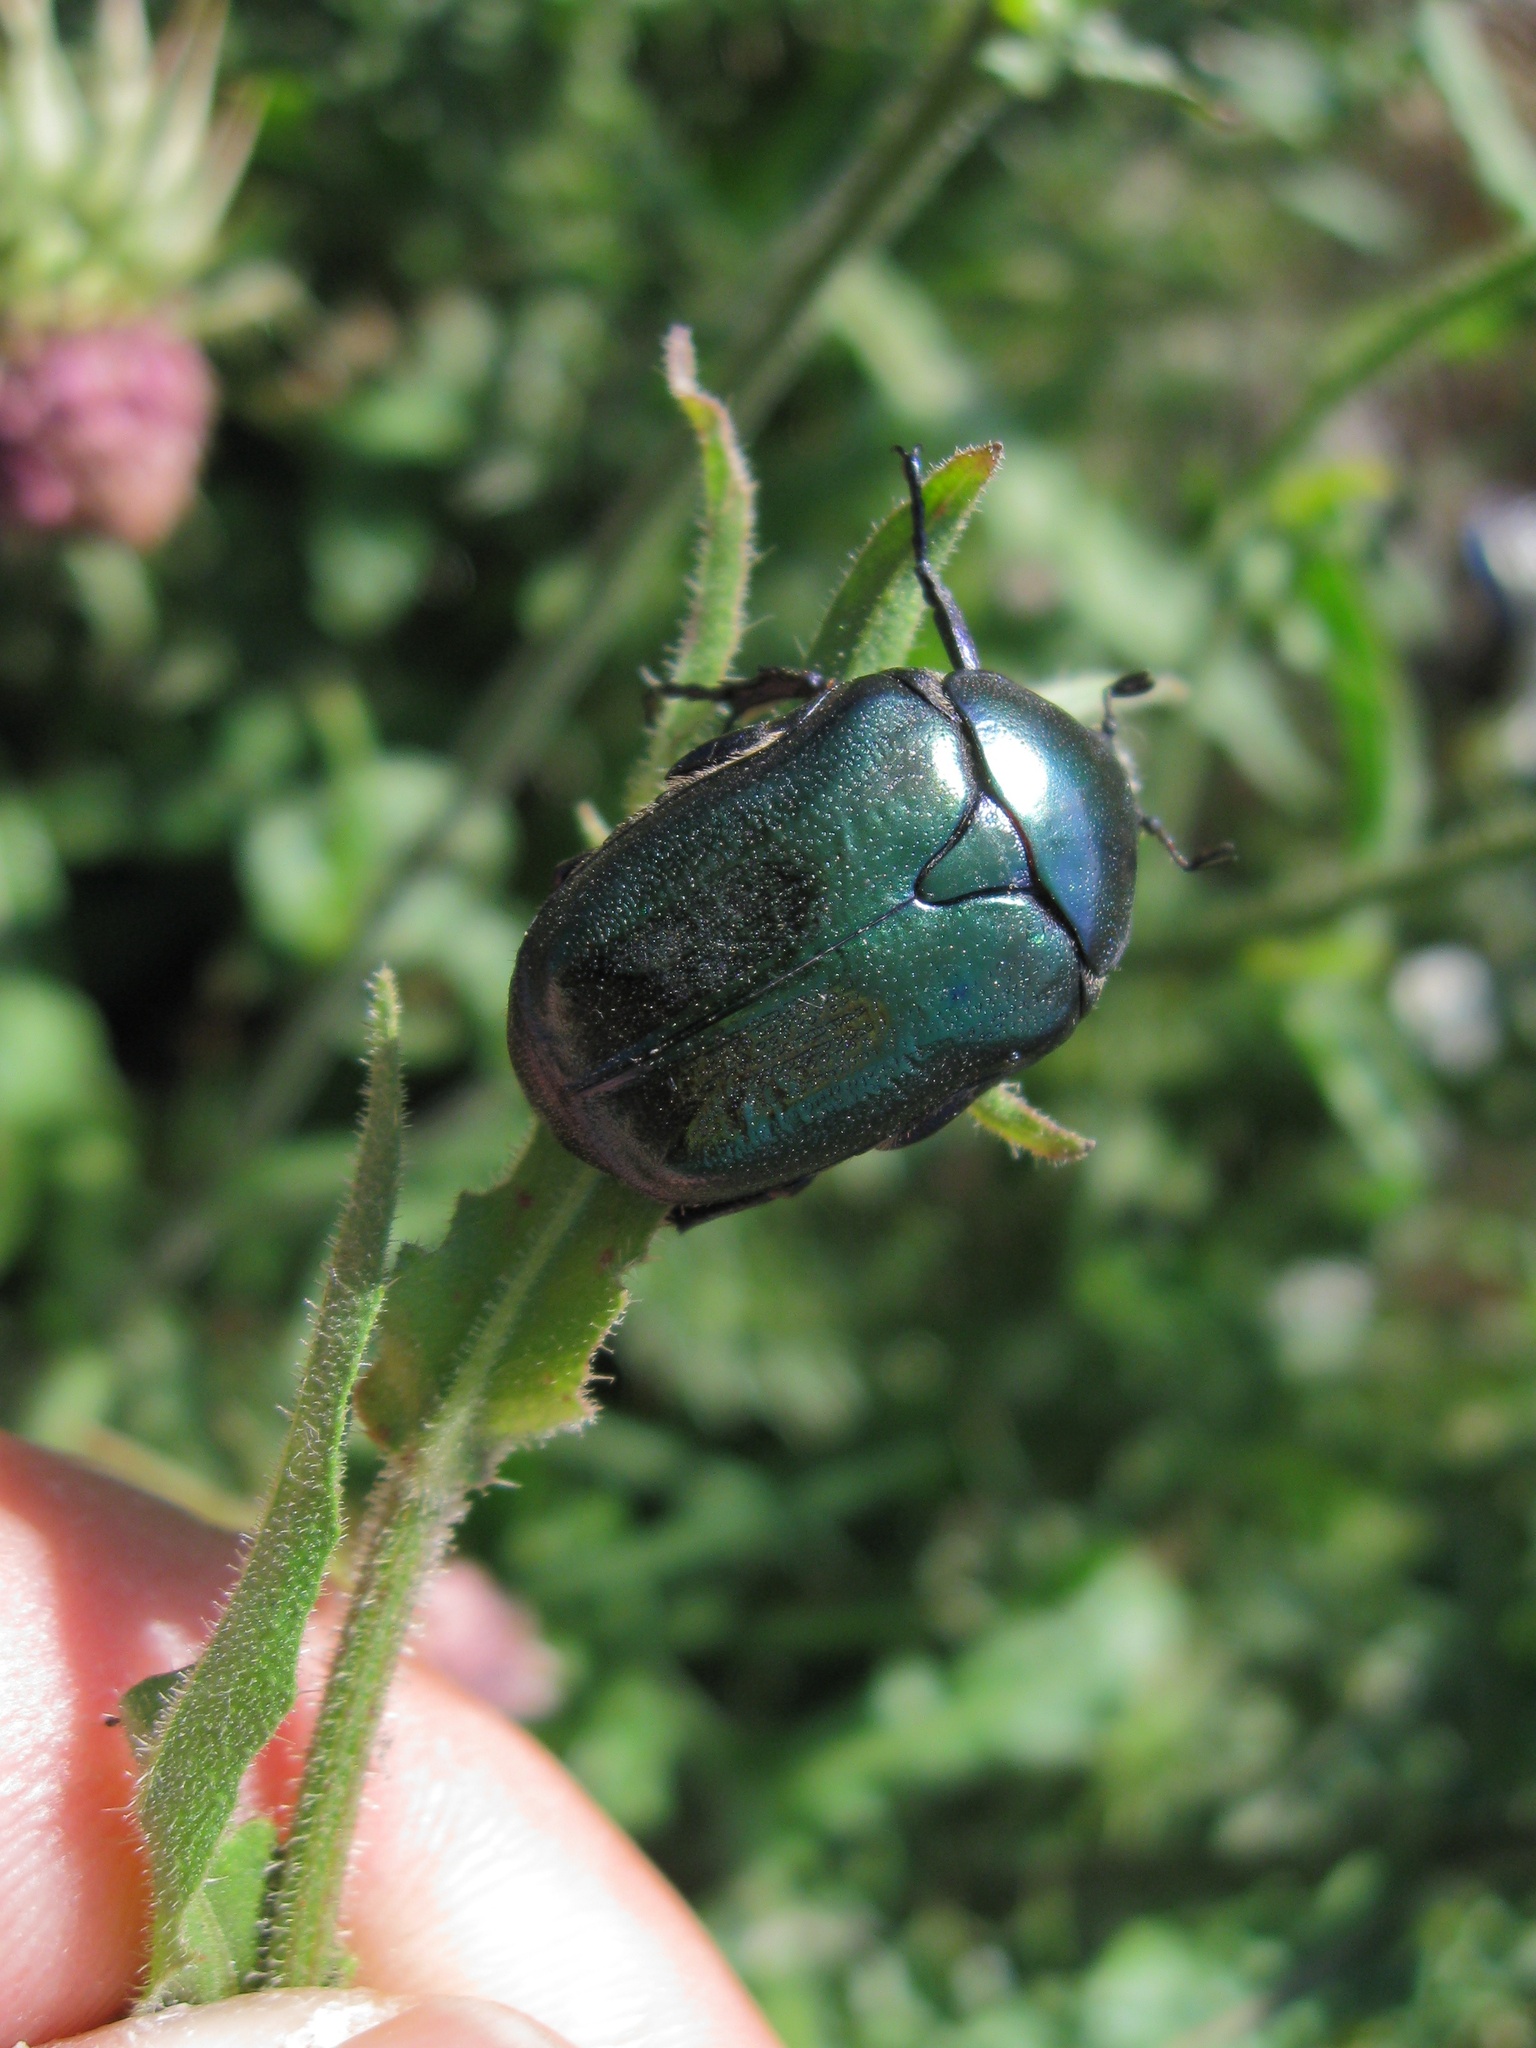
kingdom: Animalia
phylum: Arthropoda
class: Insecta
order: Coleoptera
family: Scarabaeidae
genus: Protaetia
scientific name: Protaetia angustata
